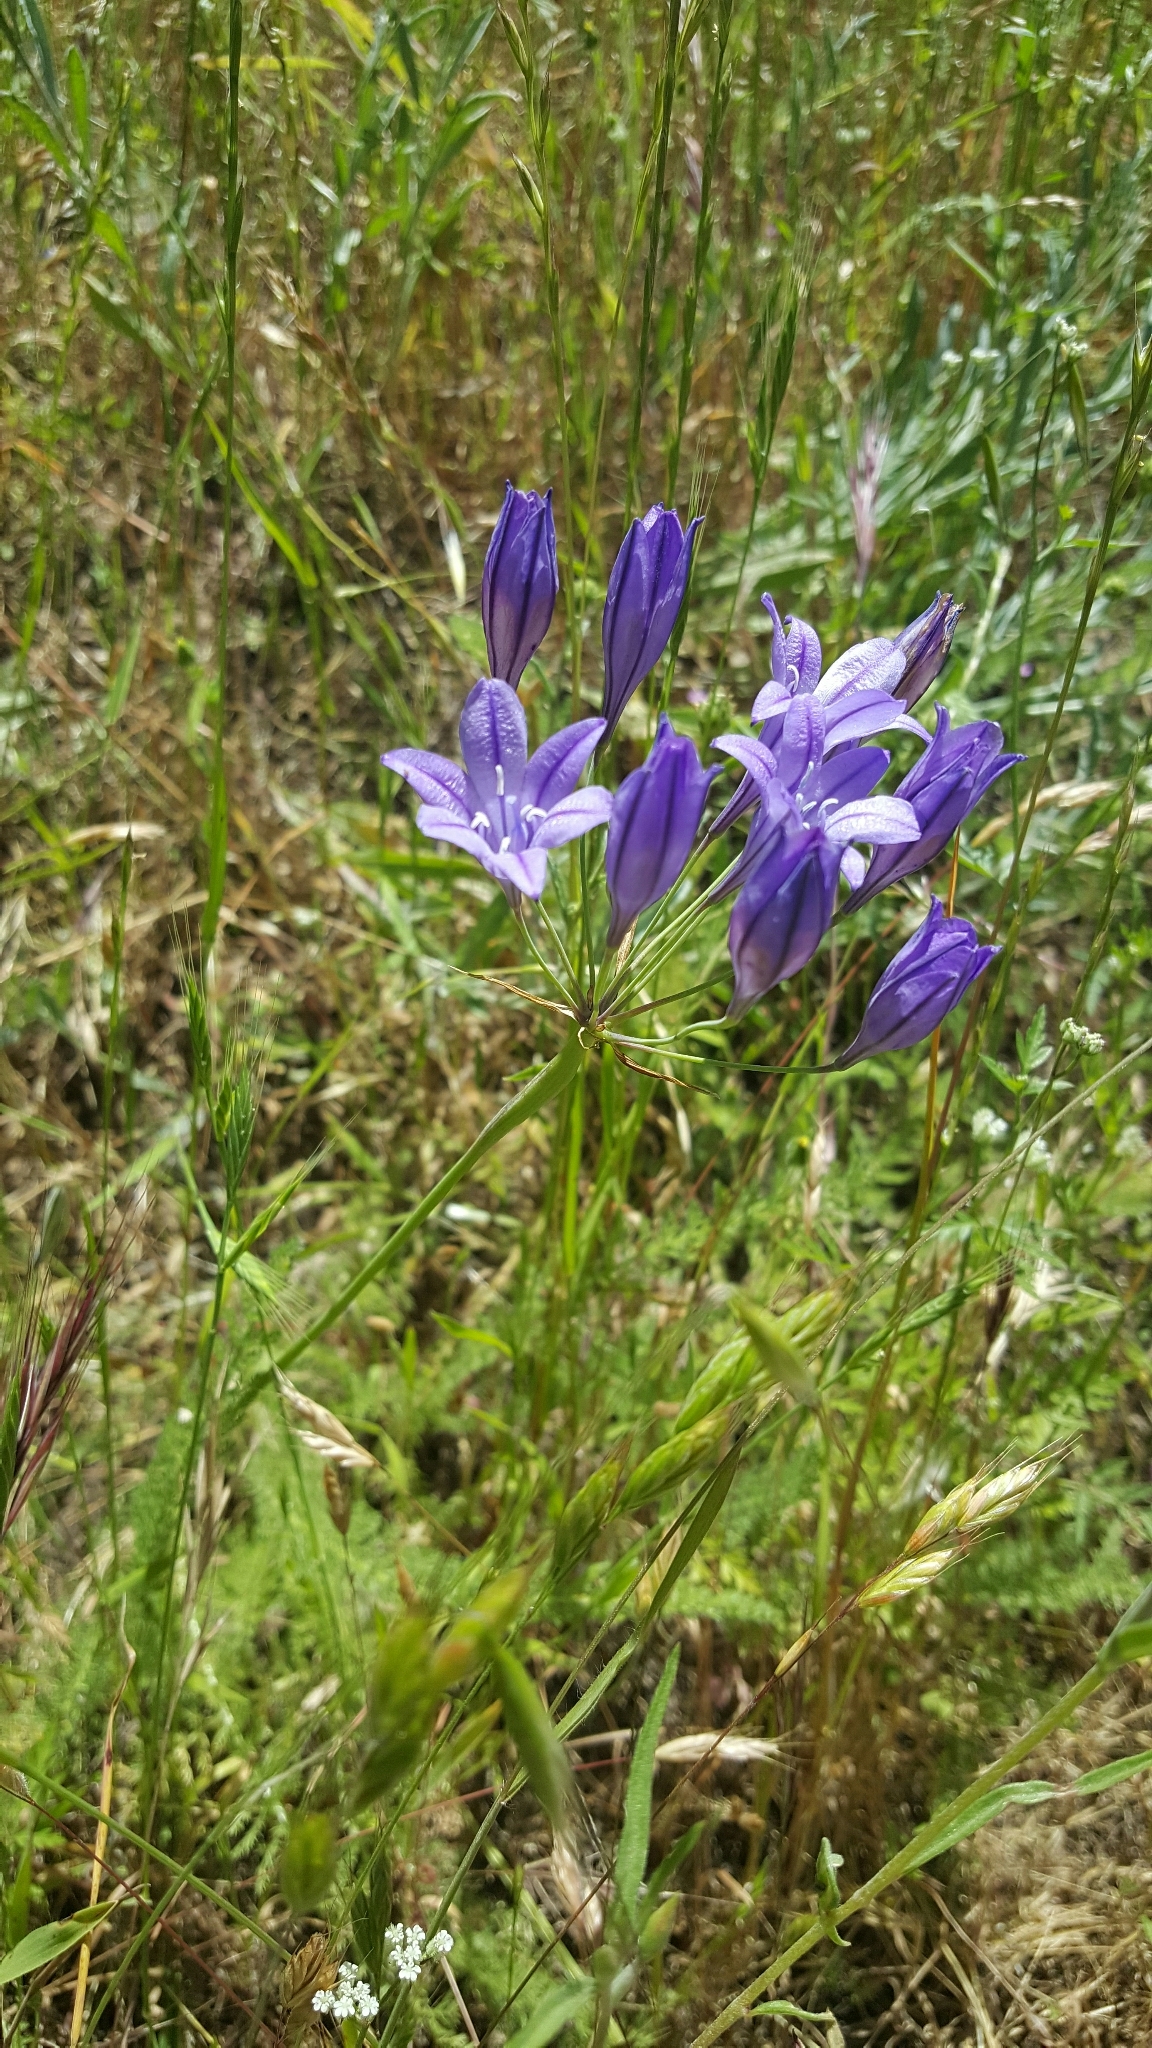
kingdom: Plantae
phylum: Tracheophyta
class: Liliopsida
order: Asparagales
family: Asparagaceae
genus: Triteleia
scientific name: Triteleia laxa
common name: Triplet-lily
